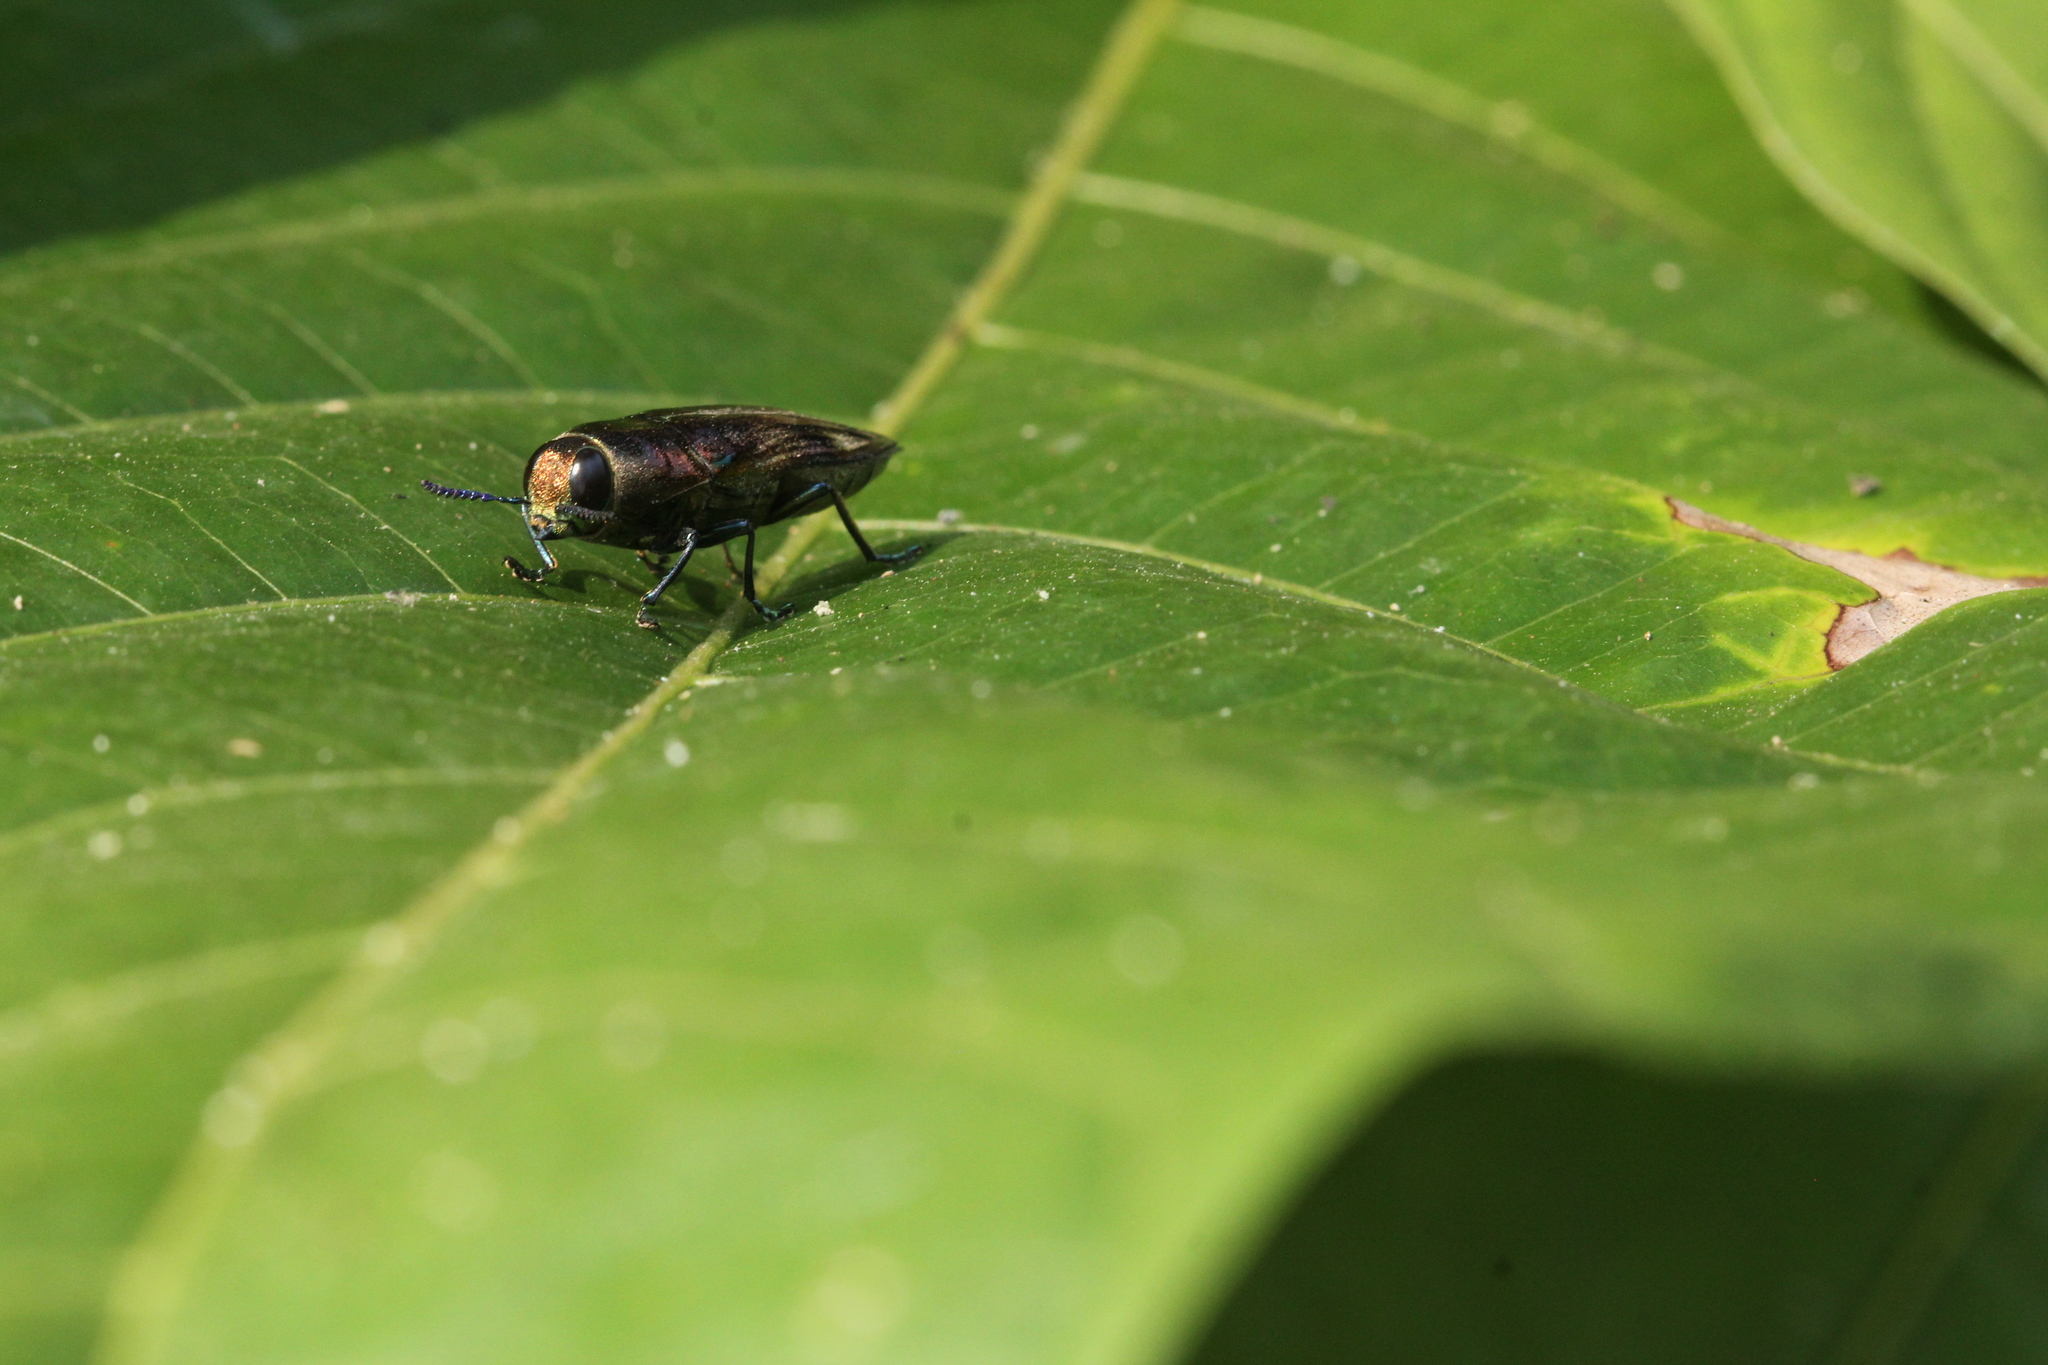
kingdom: Animalia
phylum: Arthropoda
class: Insecta
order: Coleoptera
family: Buprestidae
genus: Pelecopselaphus
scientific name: Pelecopselaphus chevrolatii
